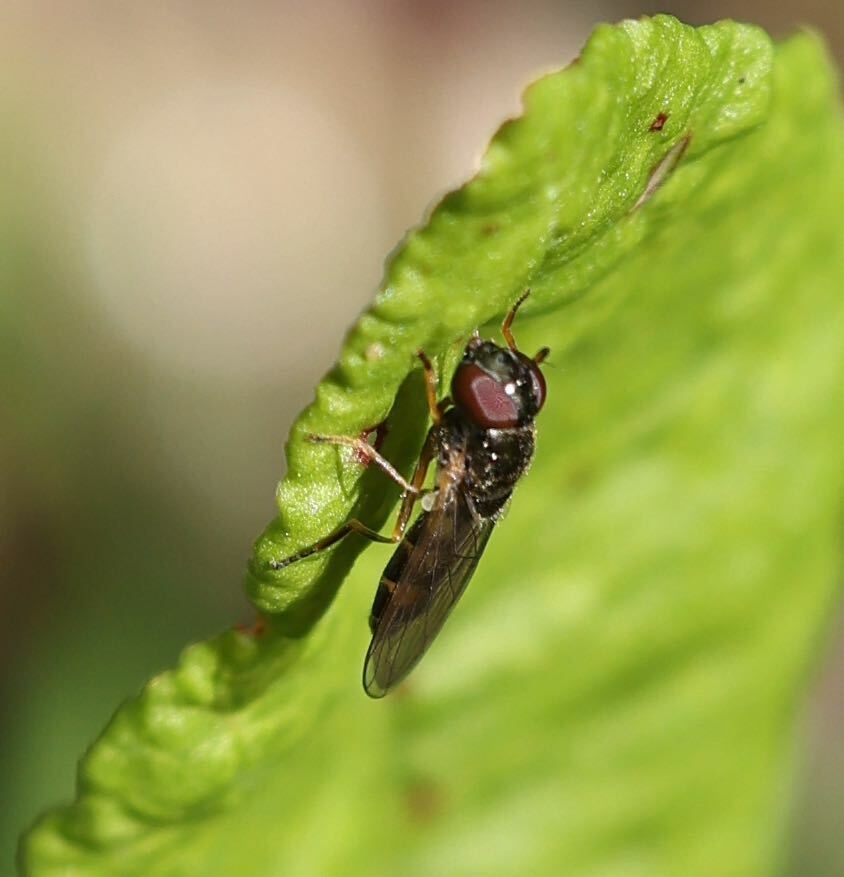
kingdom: Animalia
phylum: Arthropoda
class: Insecta
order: Diptera
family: Syrphidae
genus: Melanostoma
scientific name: Melanostoma
